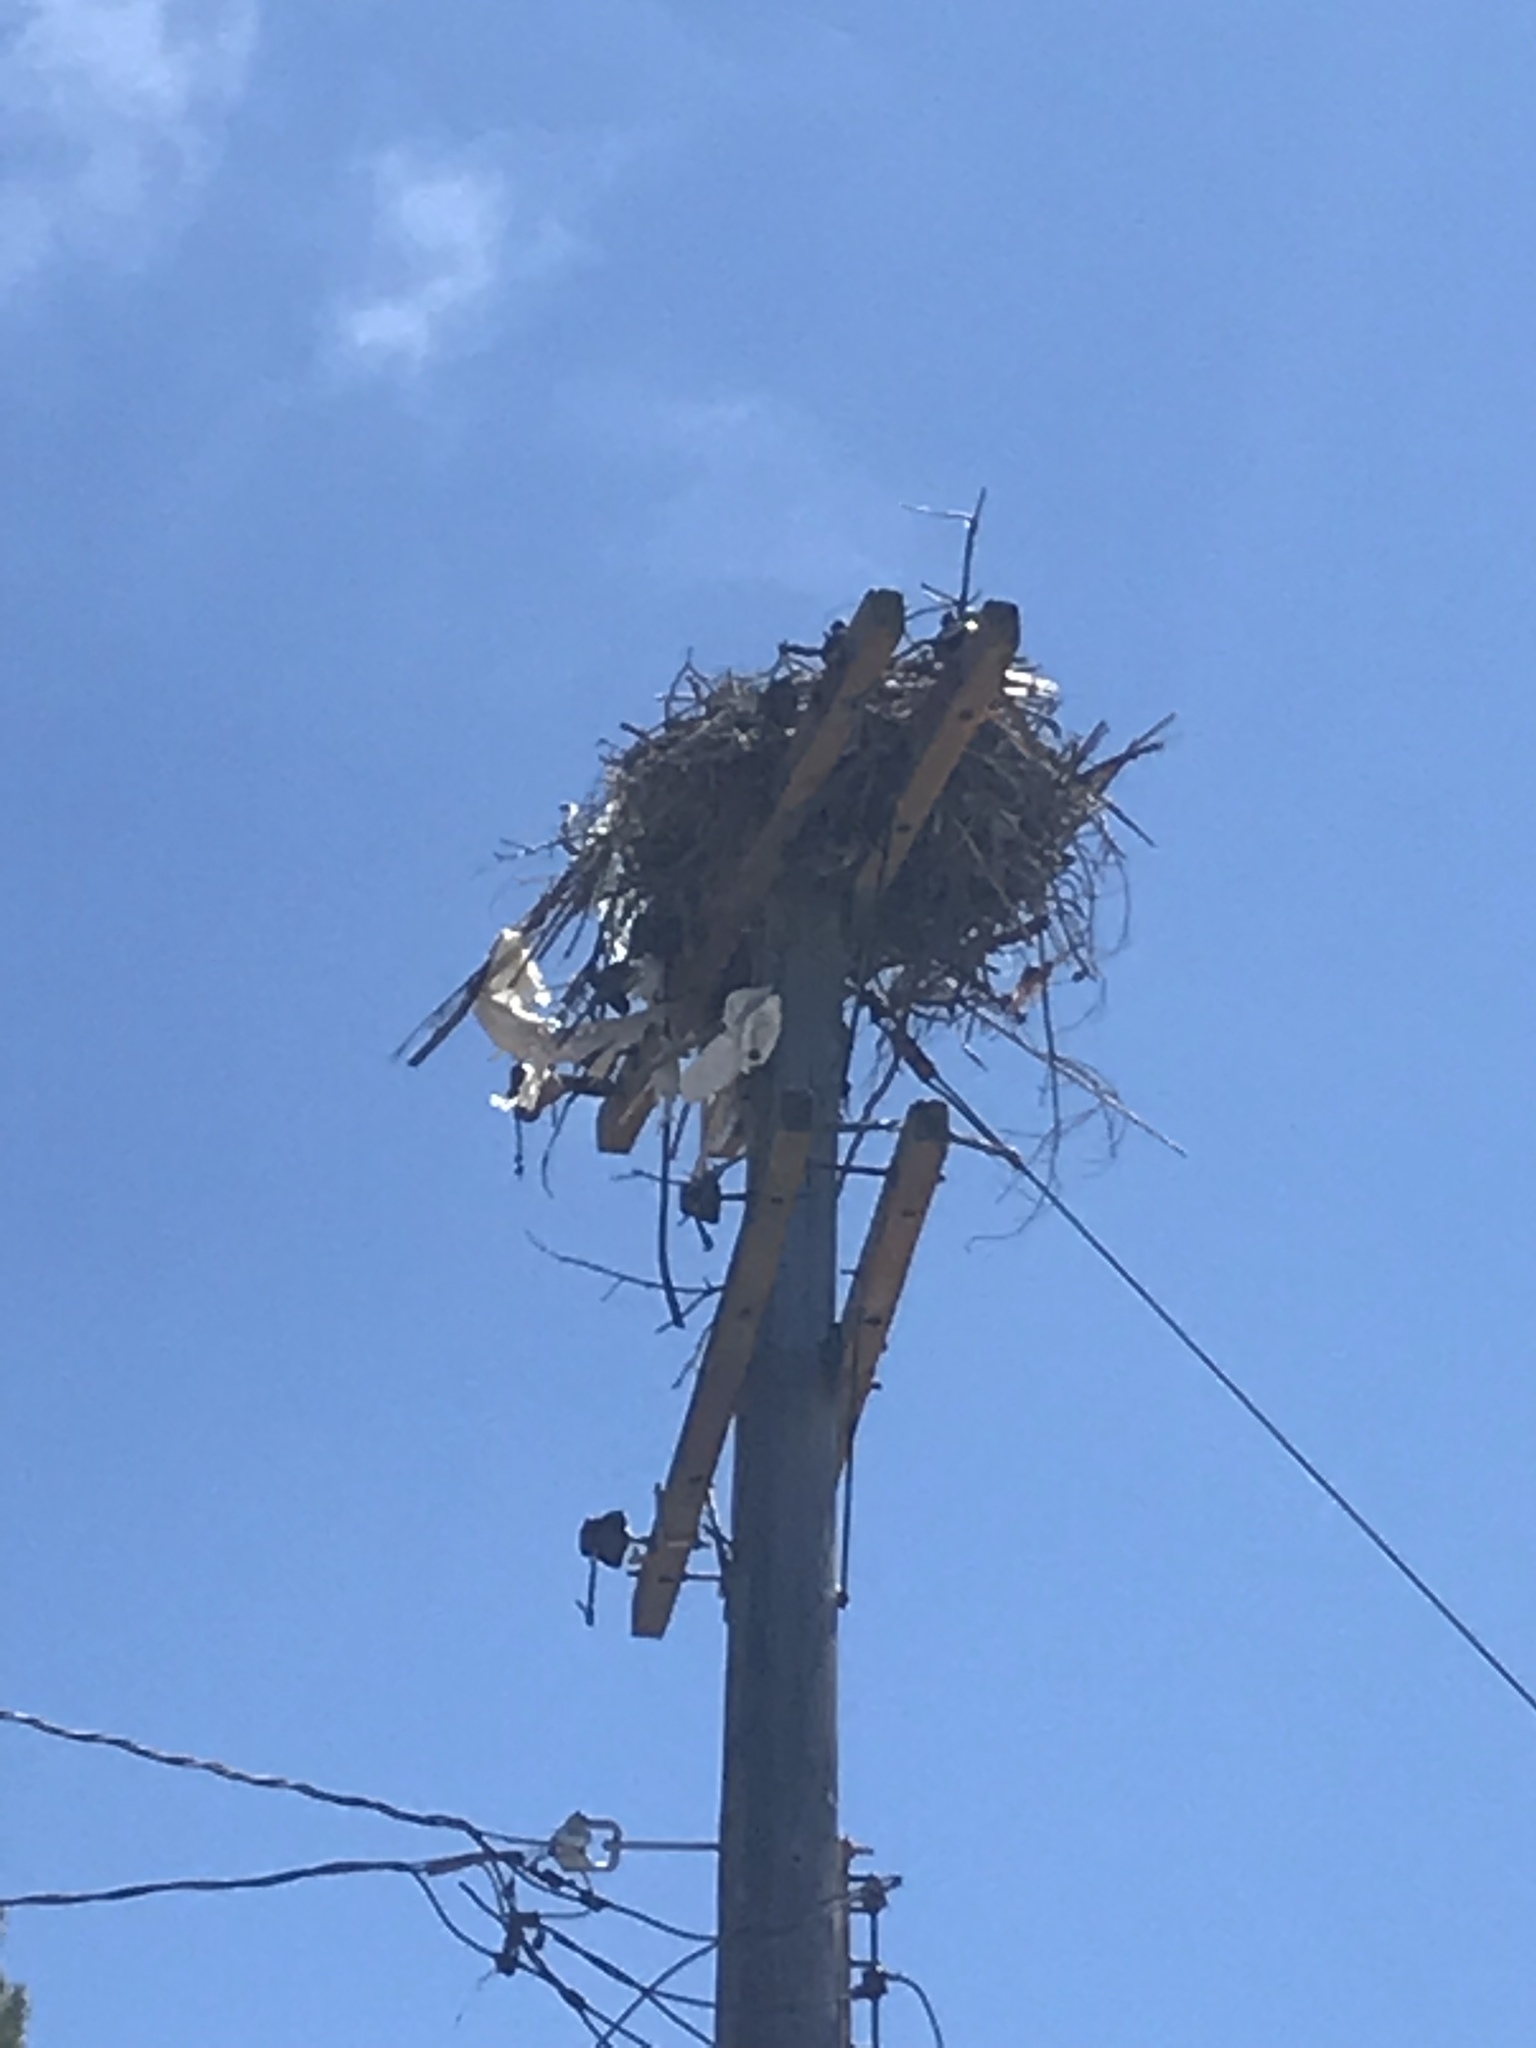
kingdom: Animalia
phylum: Chordata
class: Aves
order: Accipitriformes
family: Pandionidae
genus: Pandion
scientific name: Pandion haliaetus
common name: Osprey
